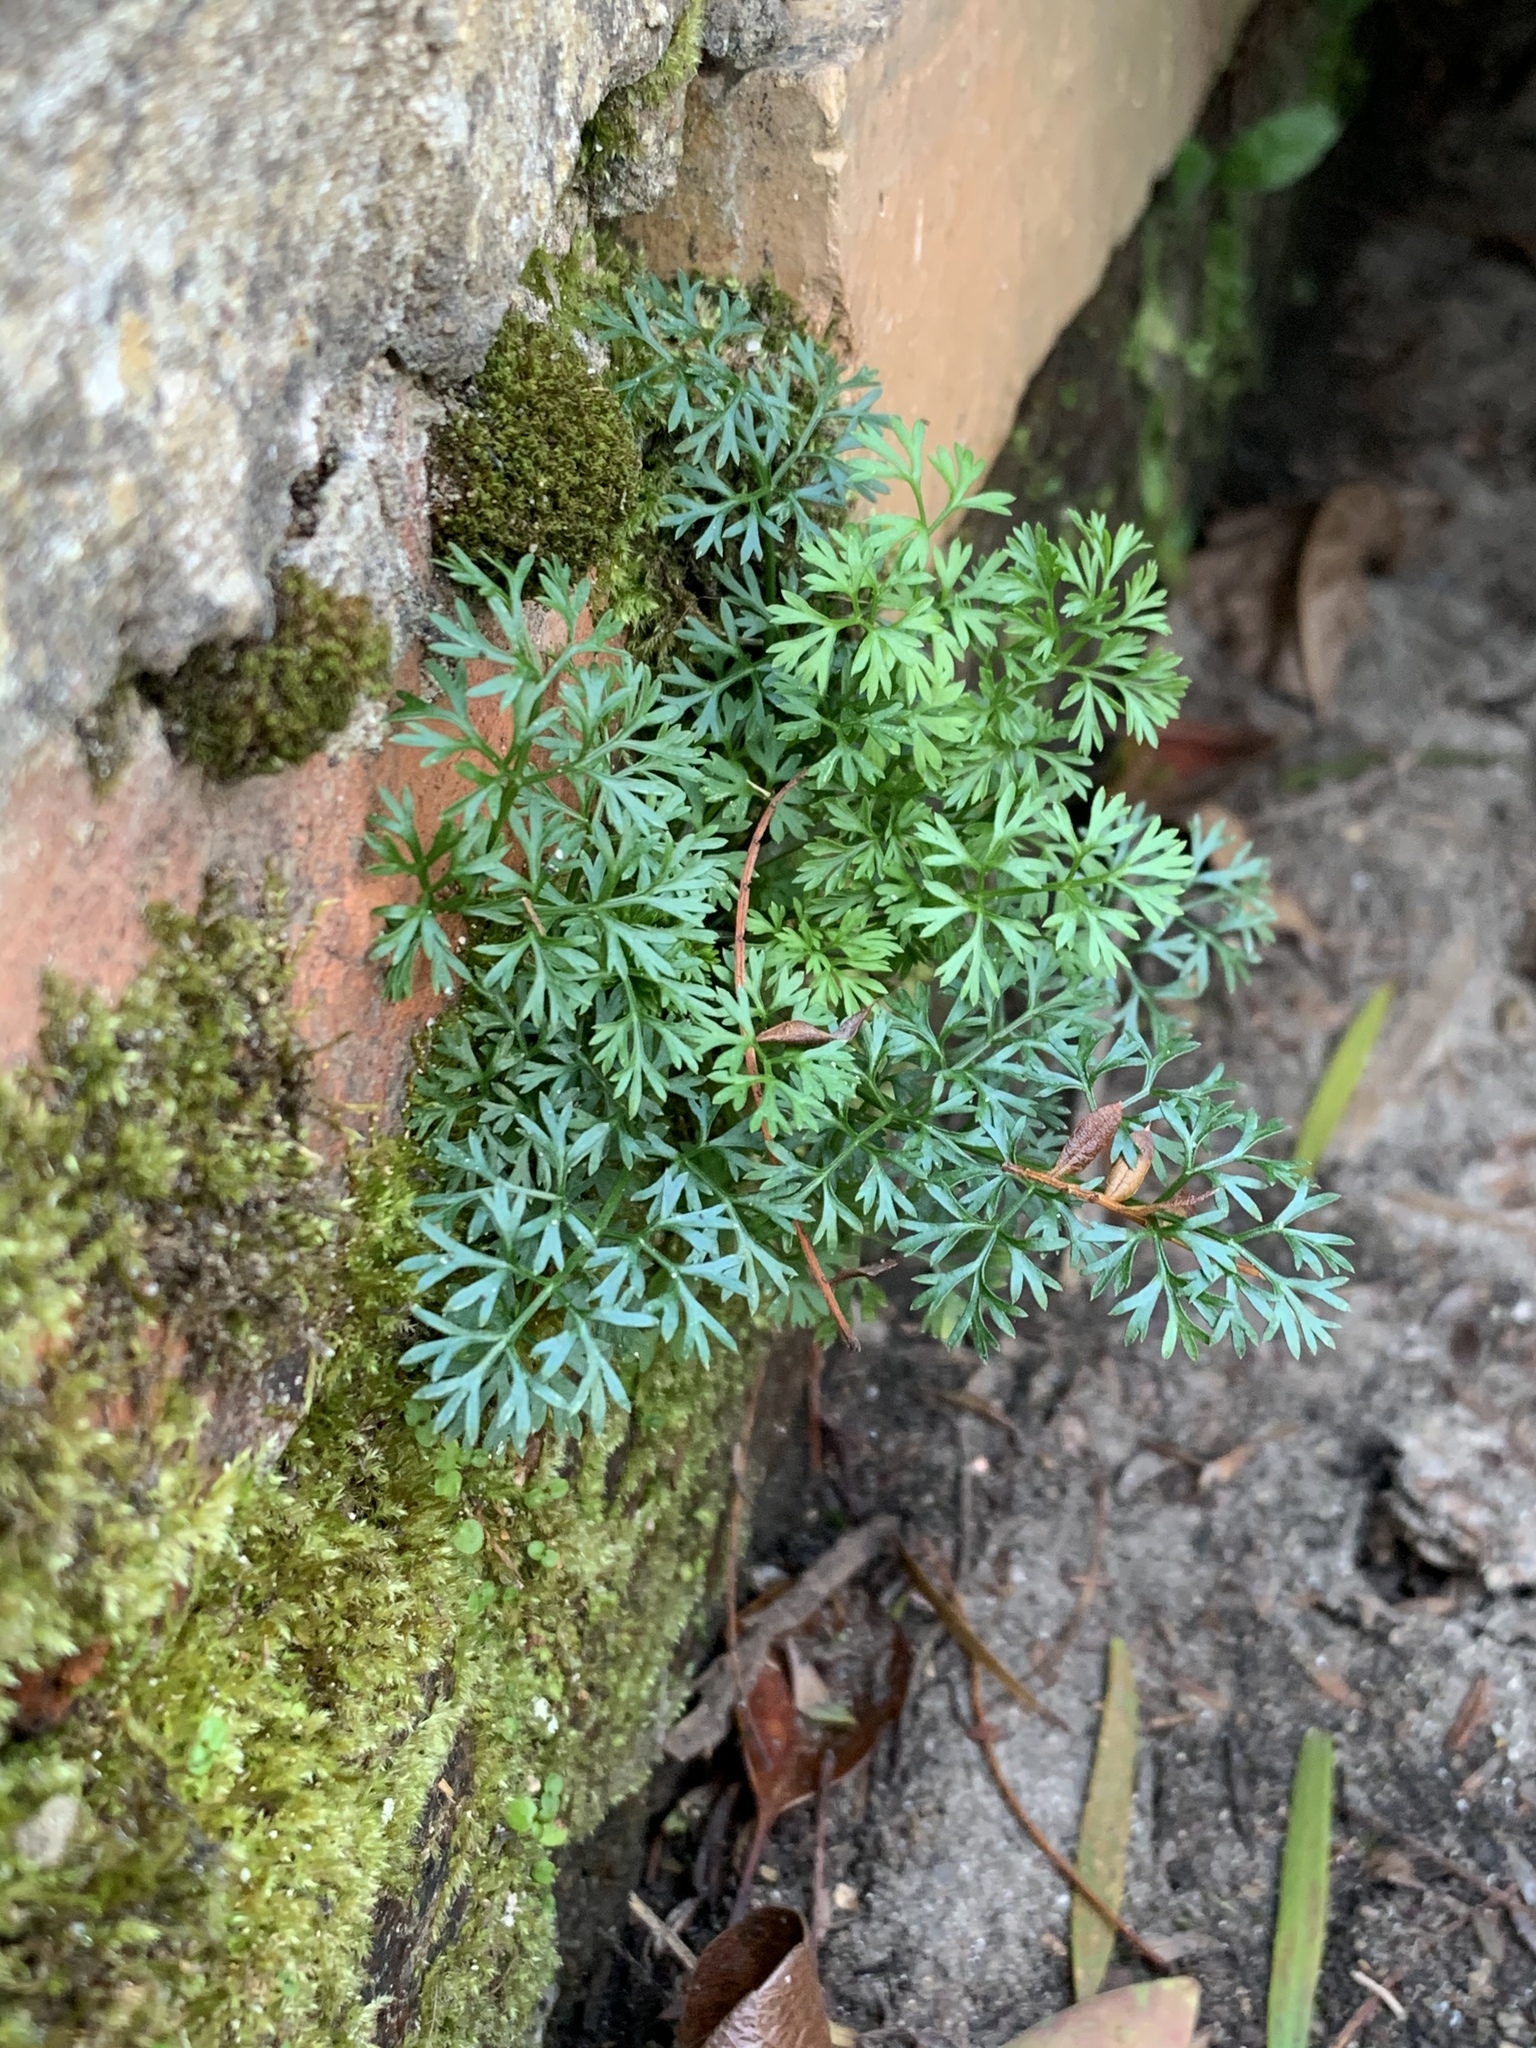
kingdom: Plantae
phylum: Tracheophyta
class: Magnoliopsida
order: Apiales
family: Apiaceae
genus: Cyclospermum
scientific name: Cyclospermum leptophyllum
